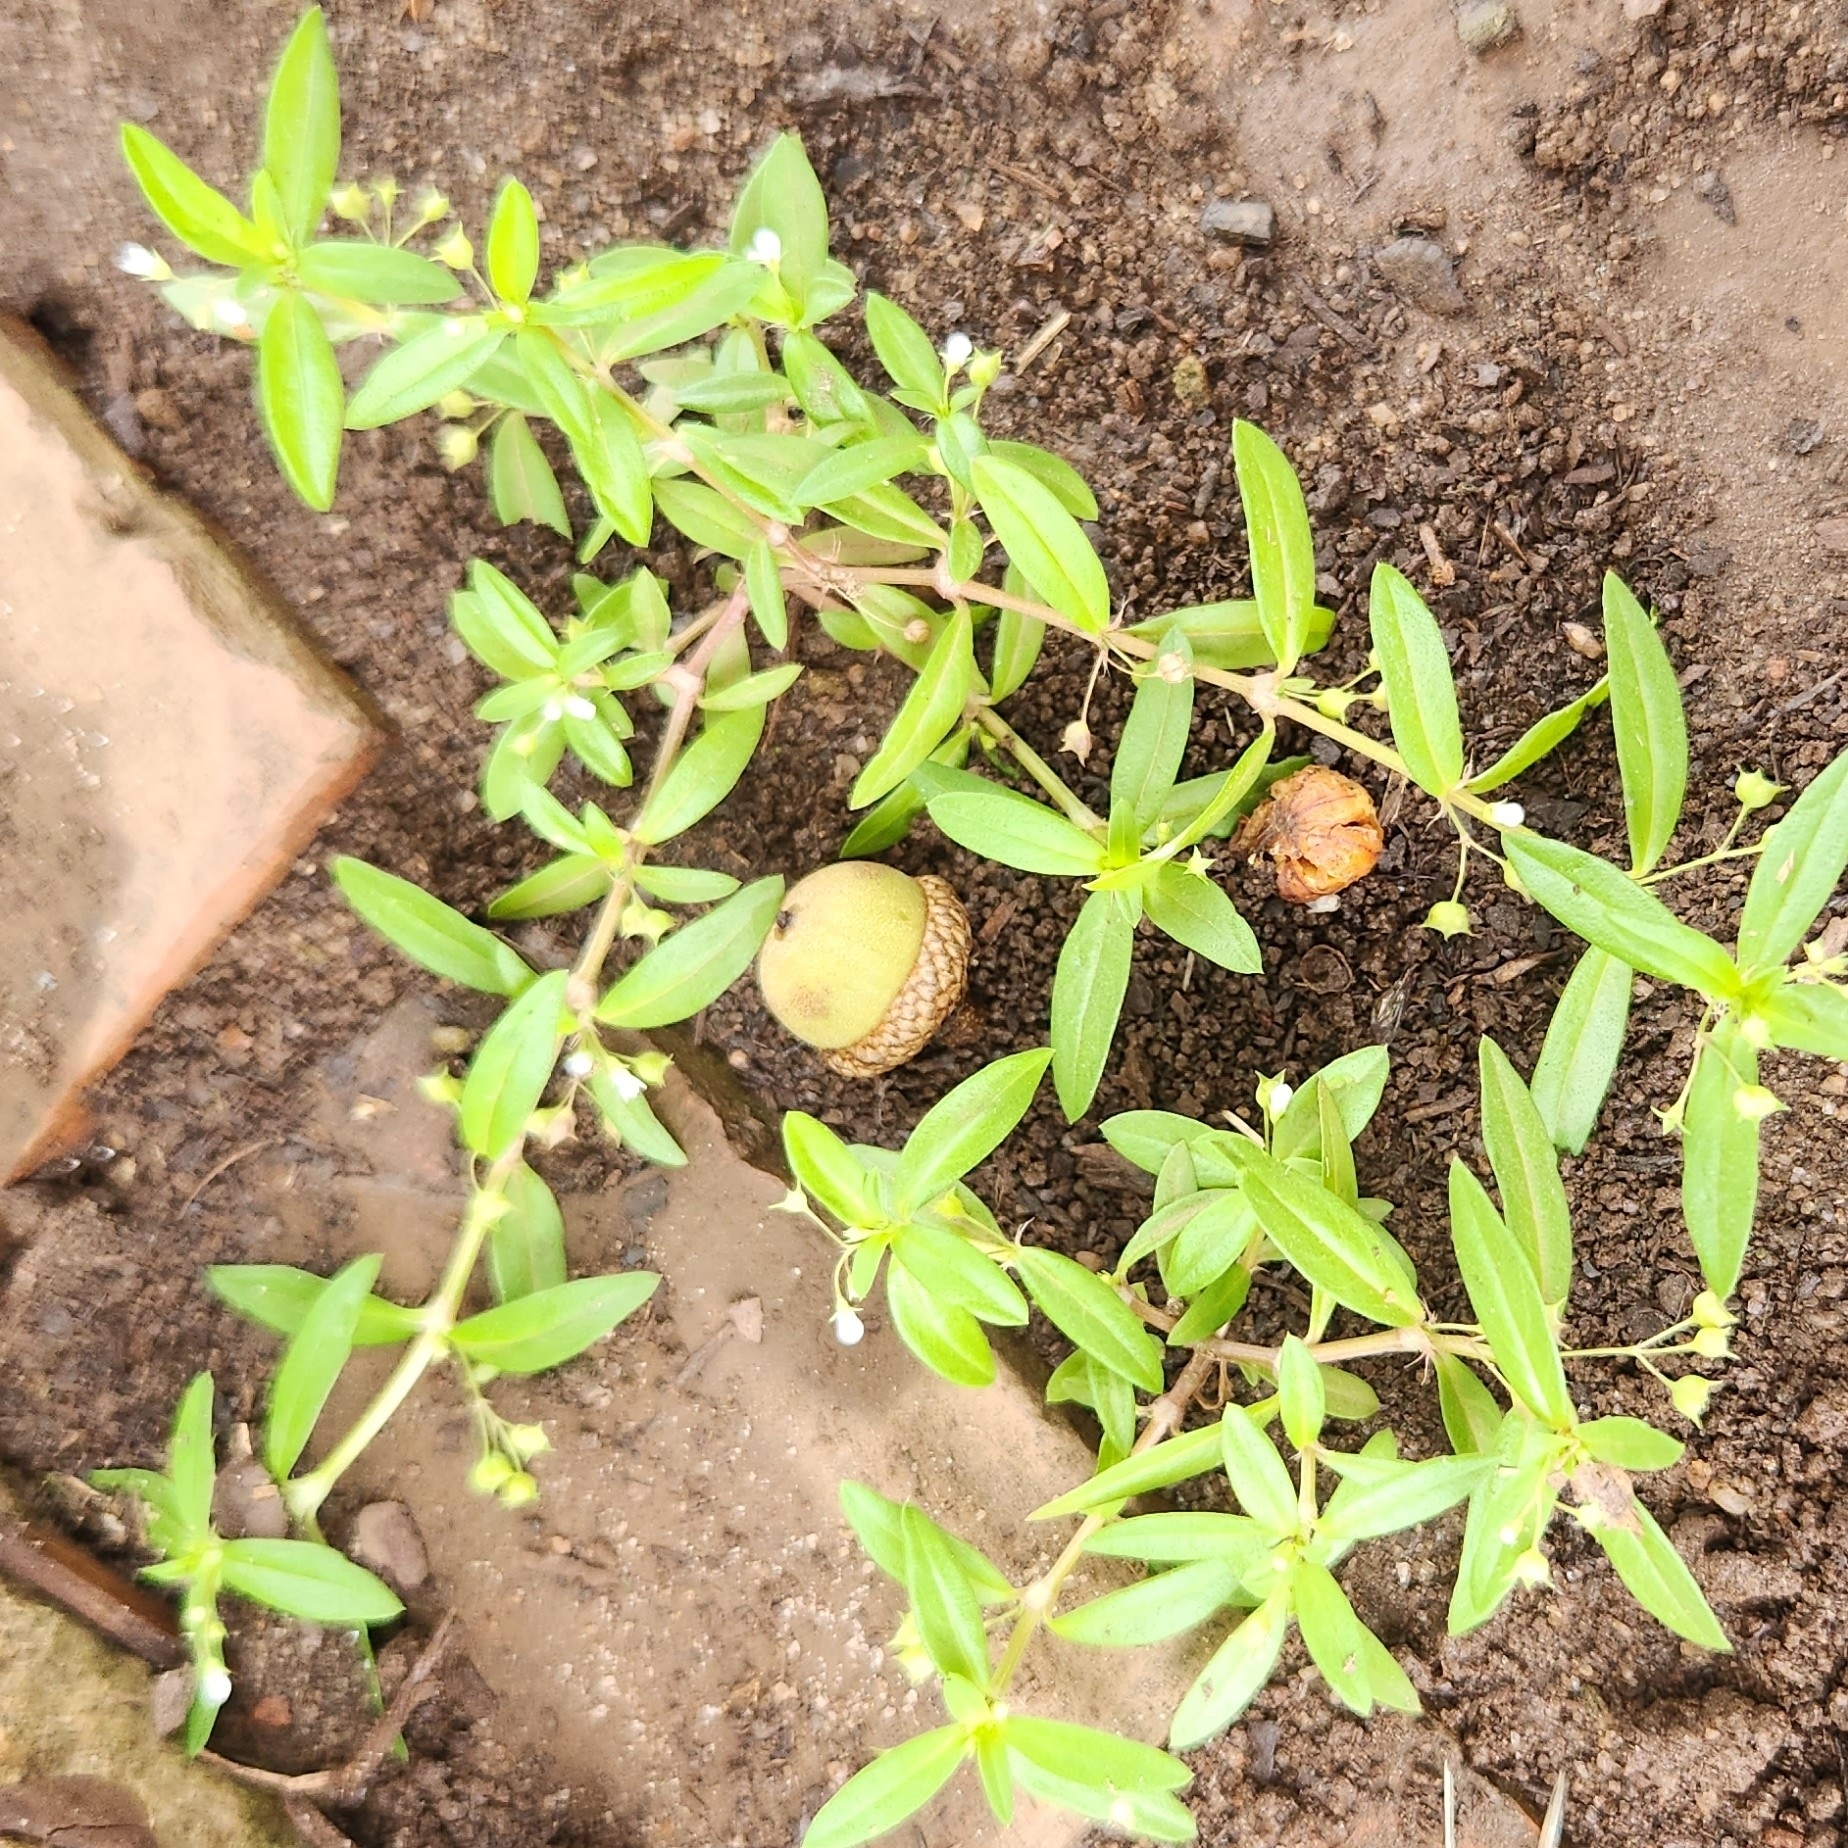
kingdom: Plantae
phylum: Tracheophyta
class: Magnoliopsida
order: Gentianales
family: Rubiaceae
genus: Oldenlandia
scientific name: Oldenlandia corymbosa
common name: Flat-top mille graines
